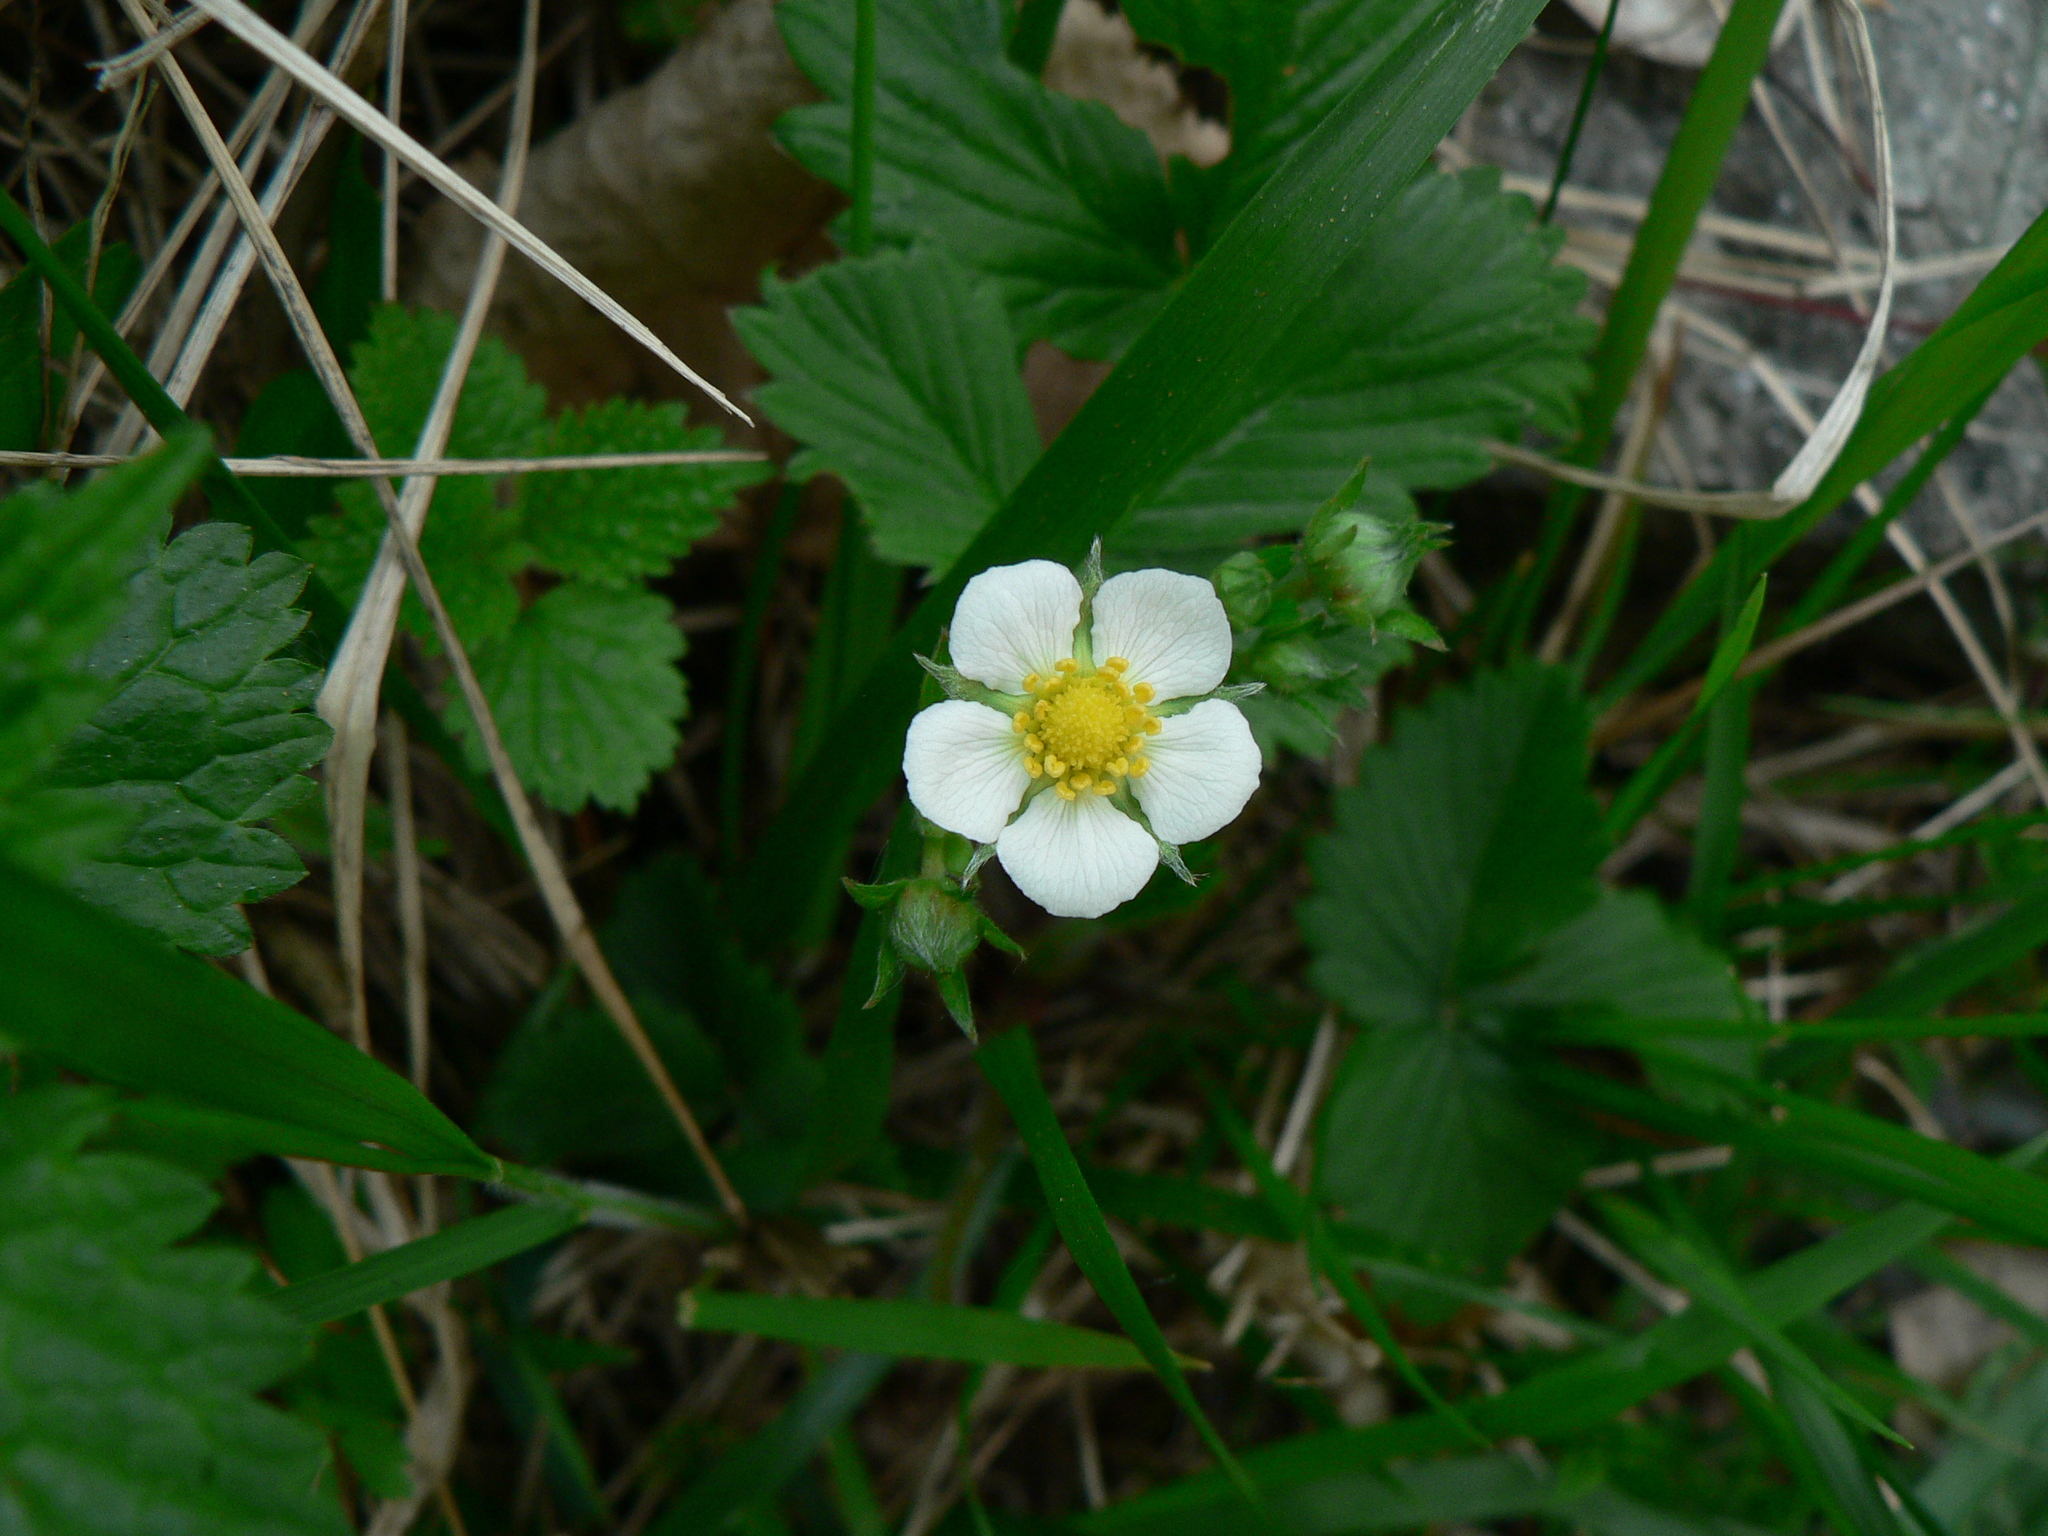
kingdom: Plantae
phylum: Tracheophyta
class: Magnoliopsida
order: Rosales
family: Rosaceae
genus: Fragaria
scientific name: Fragaria vesca
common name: Wild strawberry
